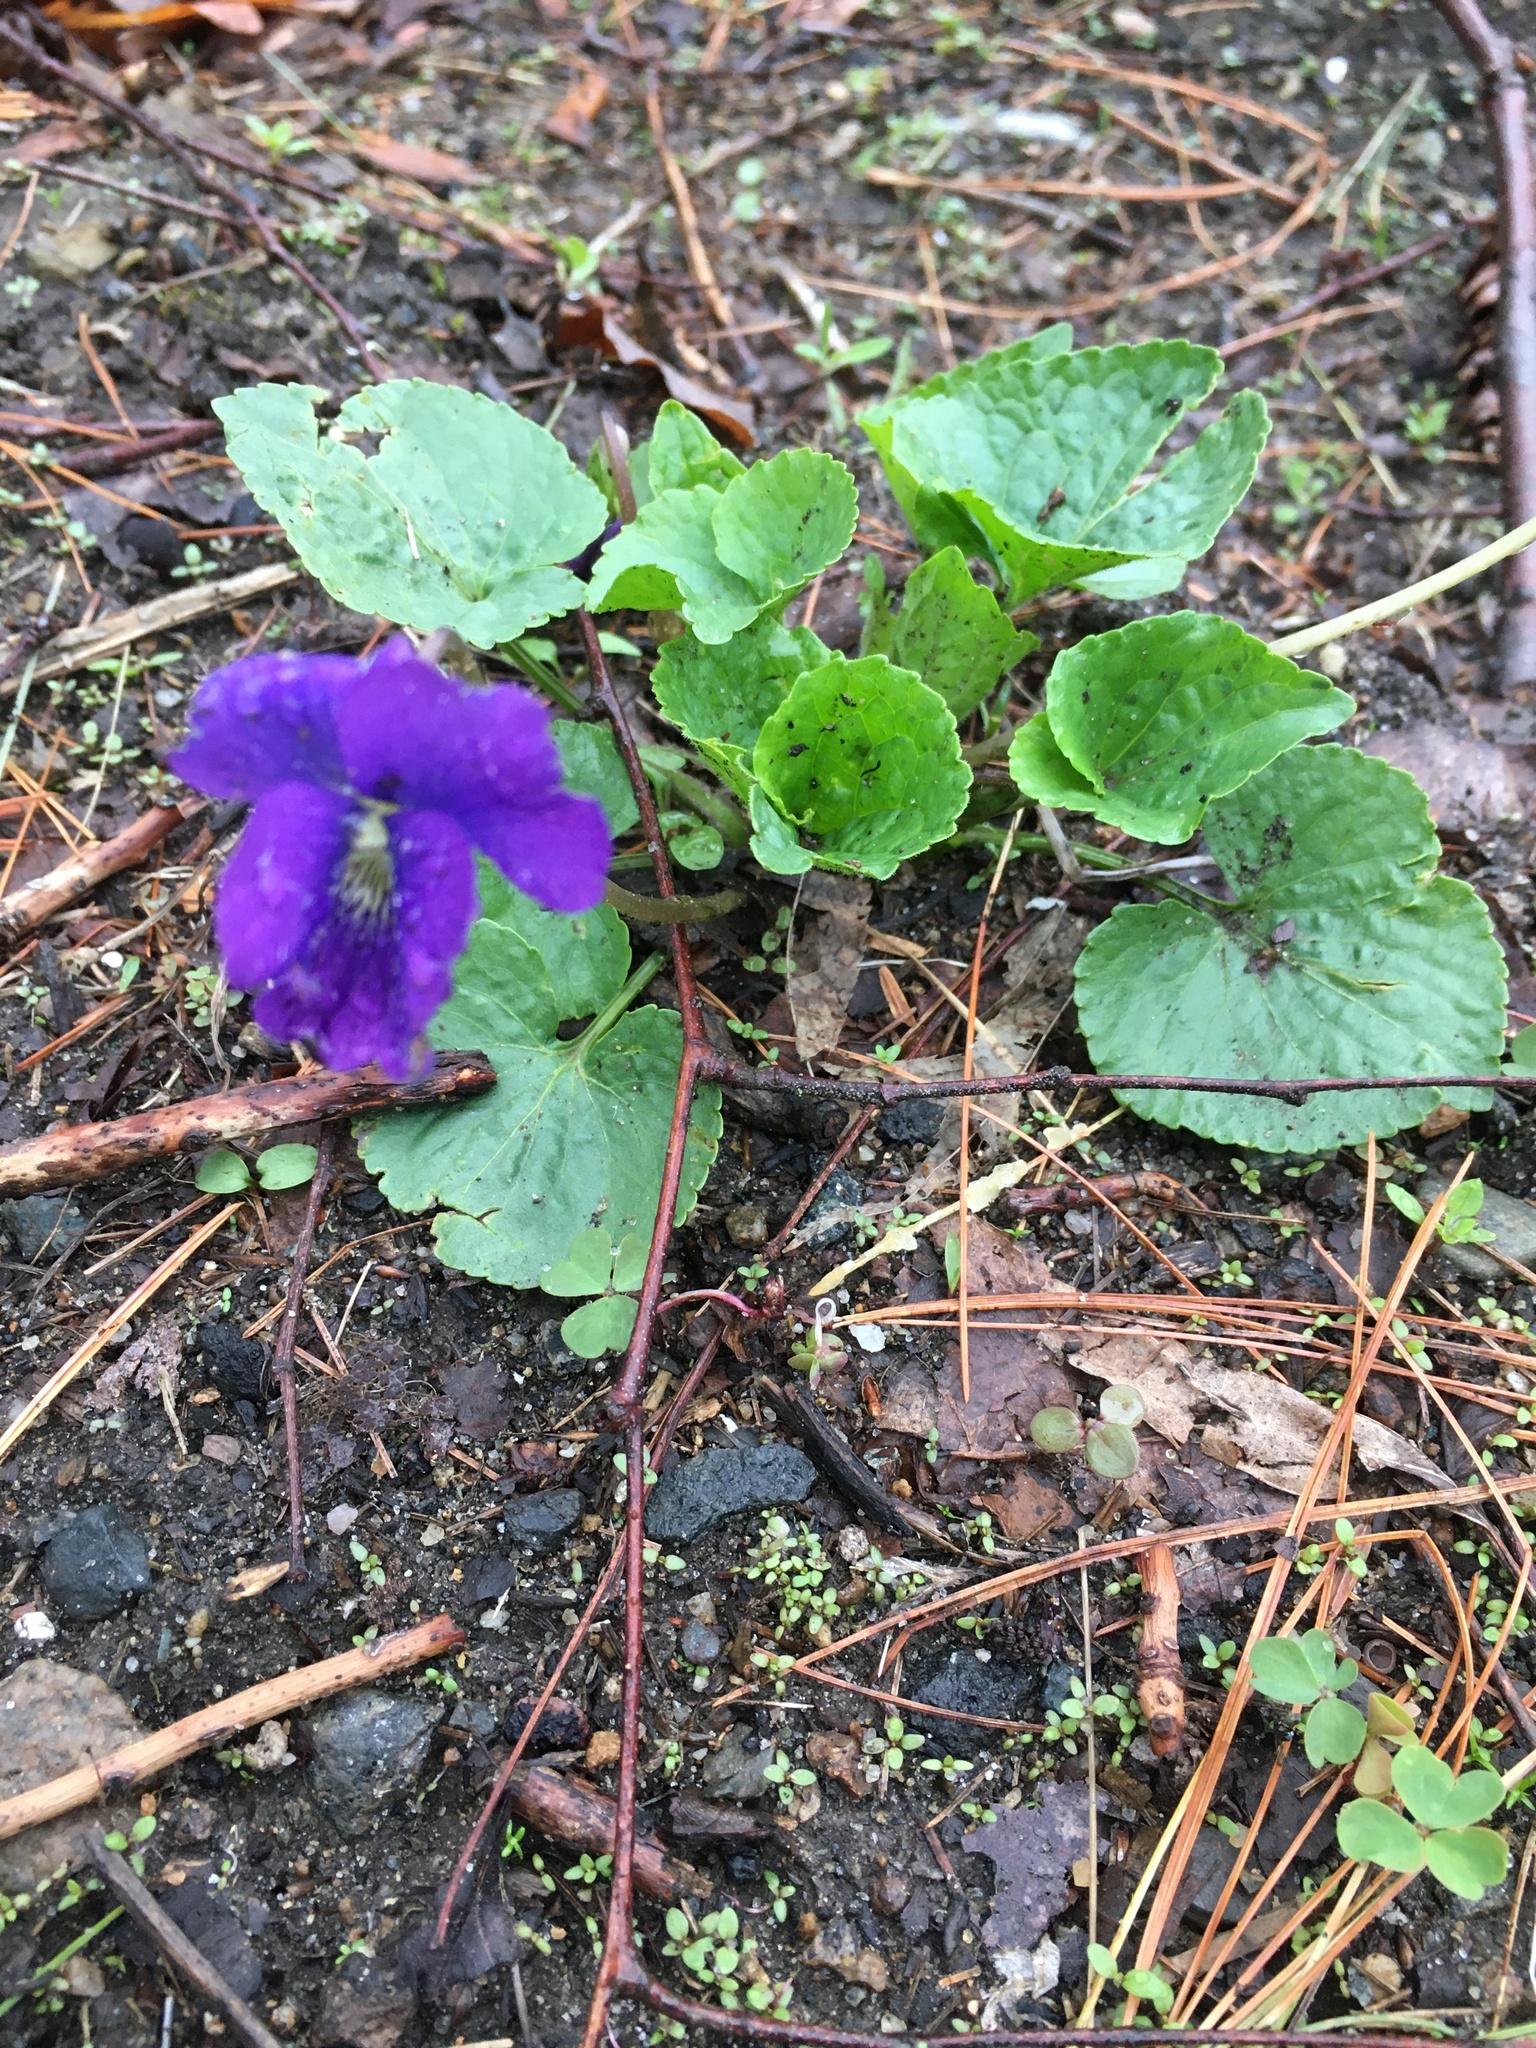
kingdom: Plantae
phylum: Tracheophyta
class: Magnoliopsida
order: Malpighiales
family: Violaceae
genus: Viola
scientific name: Viola sororia
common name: Dooryard violet
